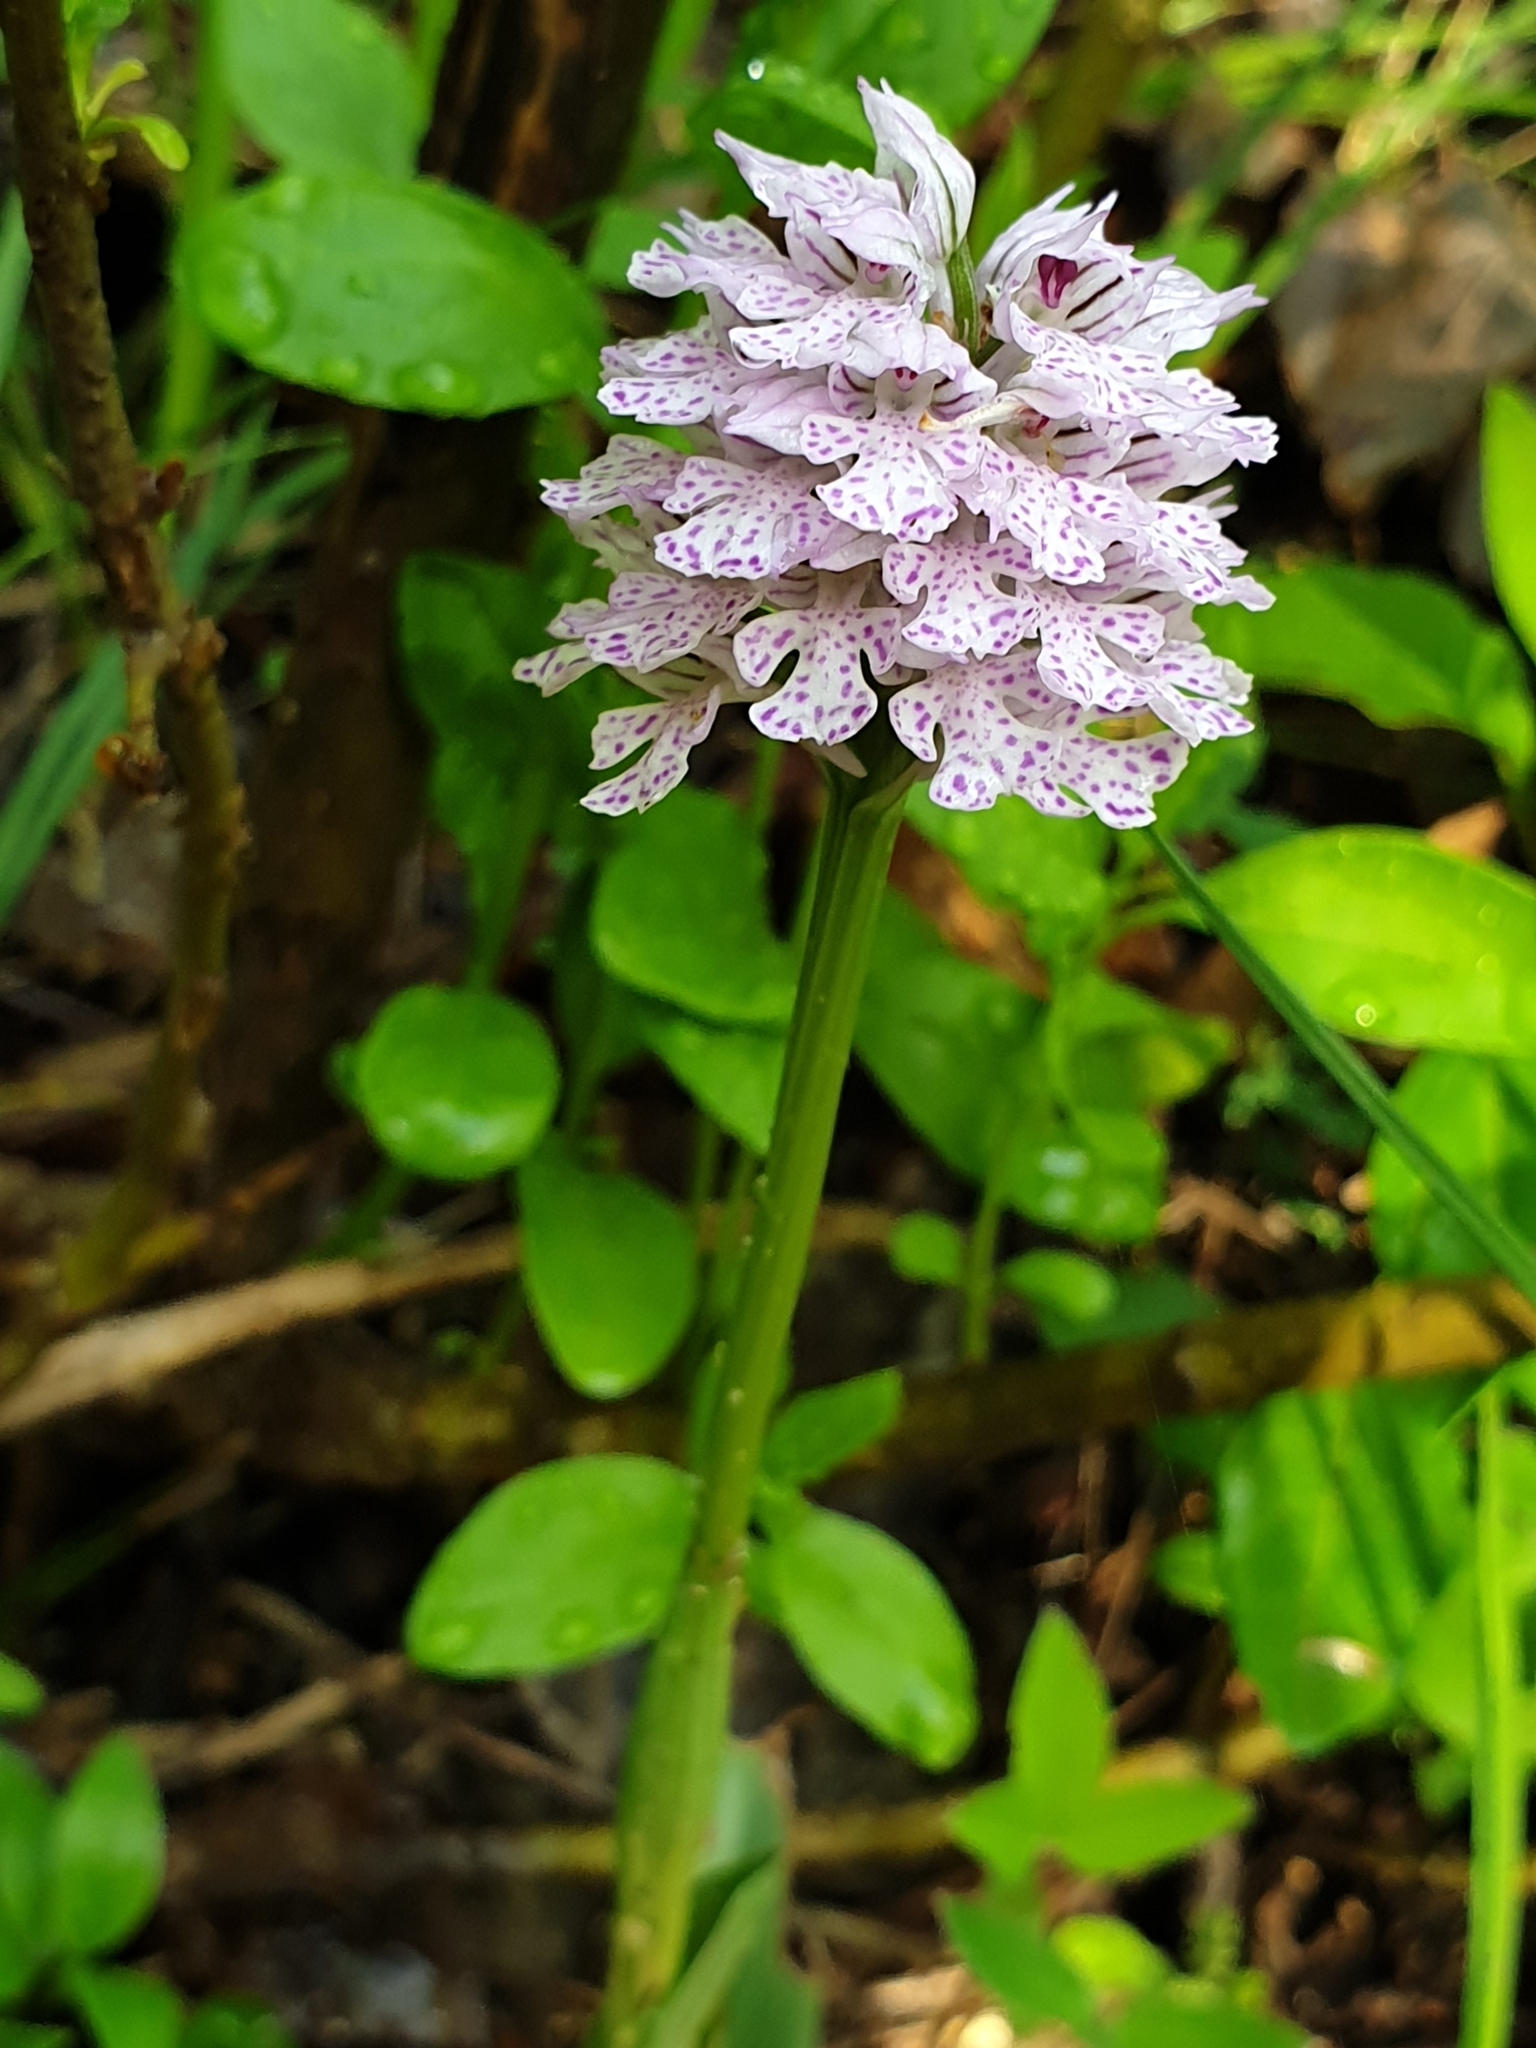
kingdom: Plantae
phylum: Tracheophyta
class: Liliopsida
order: Asparagales
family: Orchidaceae
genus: Neotinea
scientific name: Neotinea tridentata
